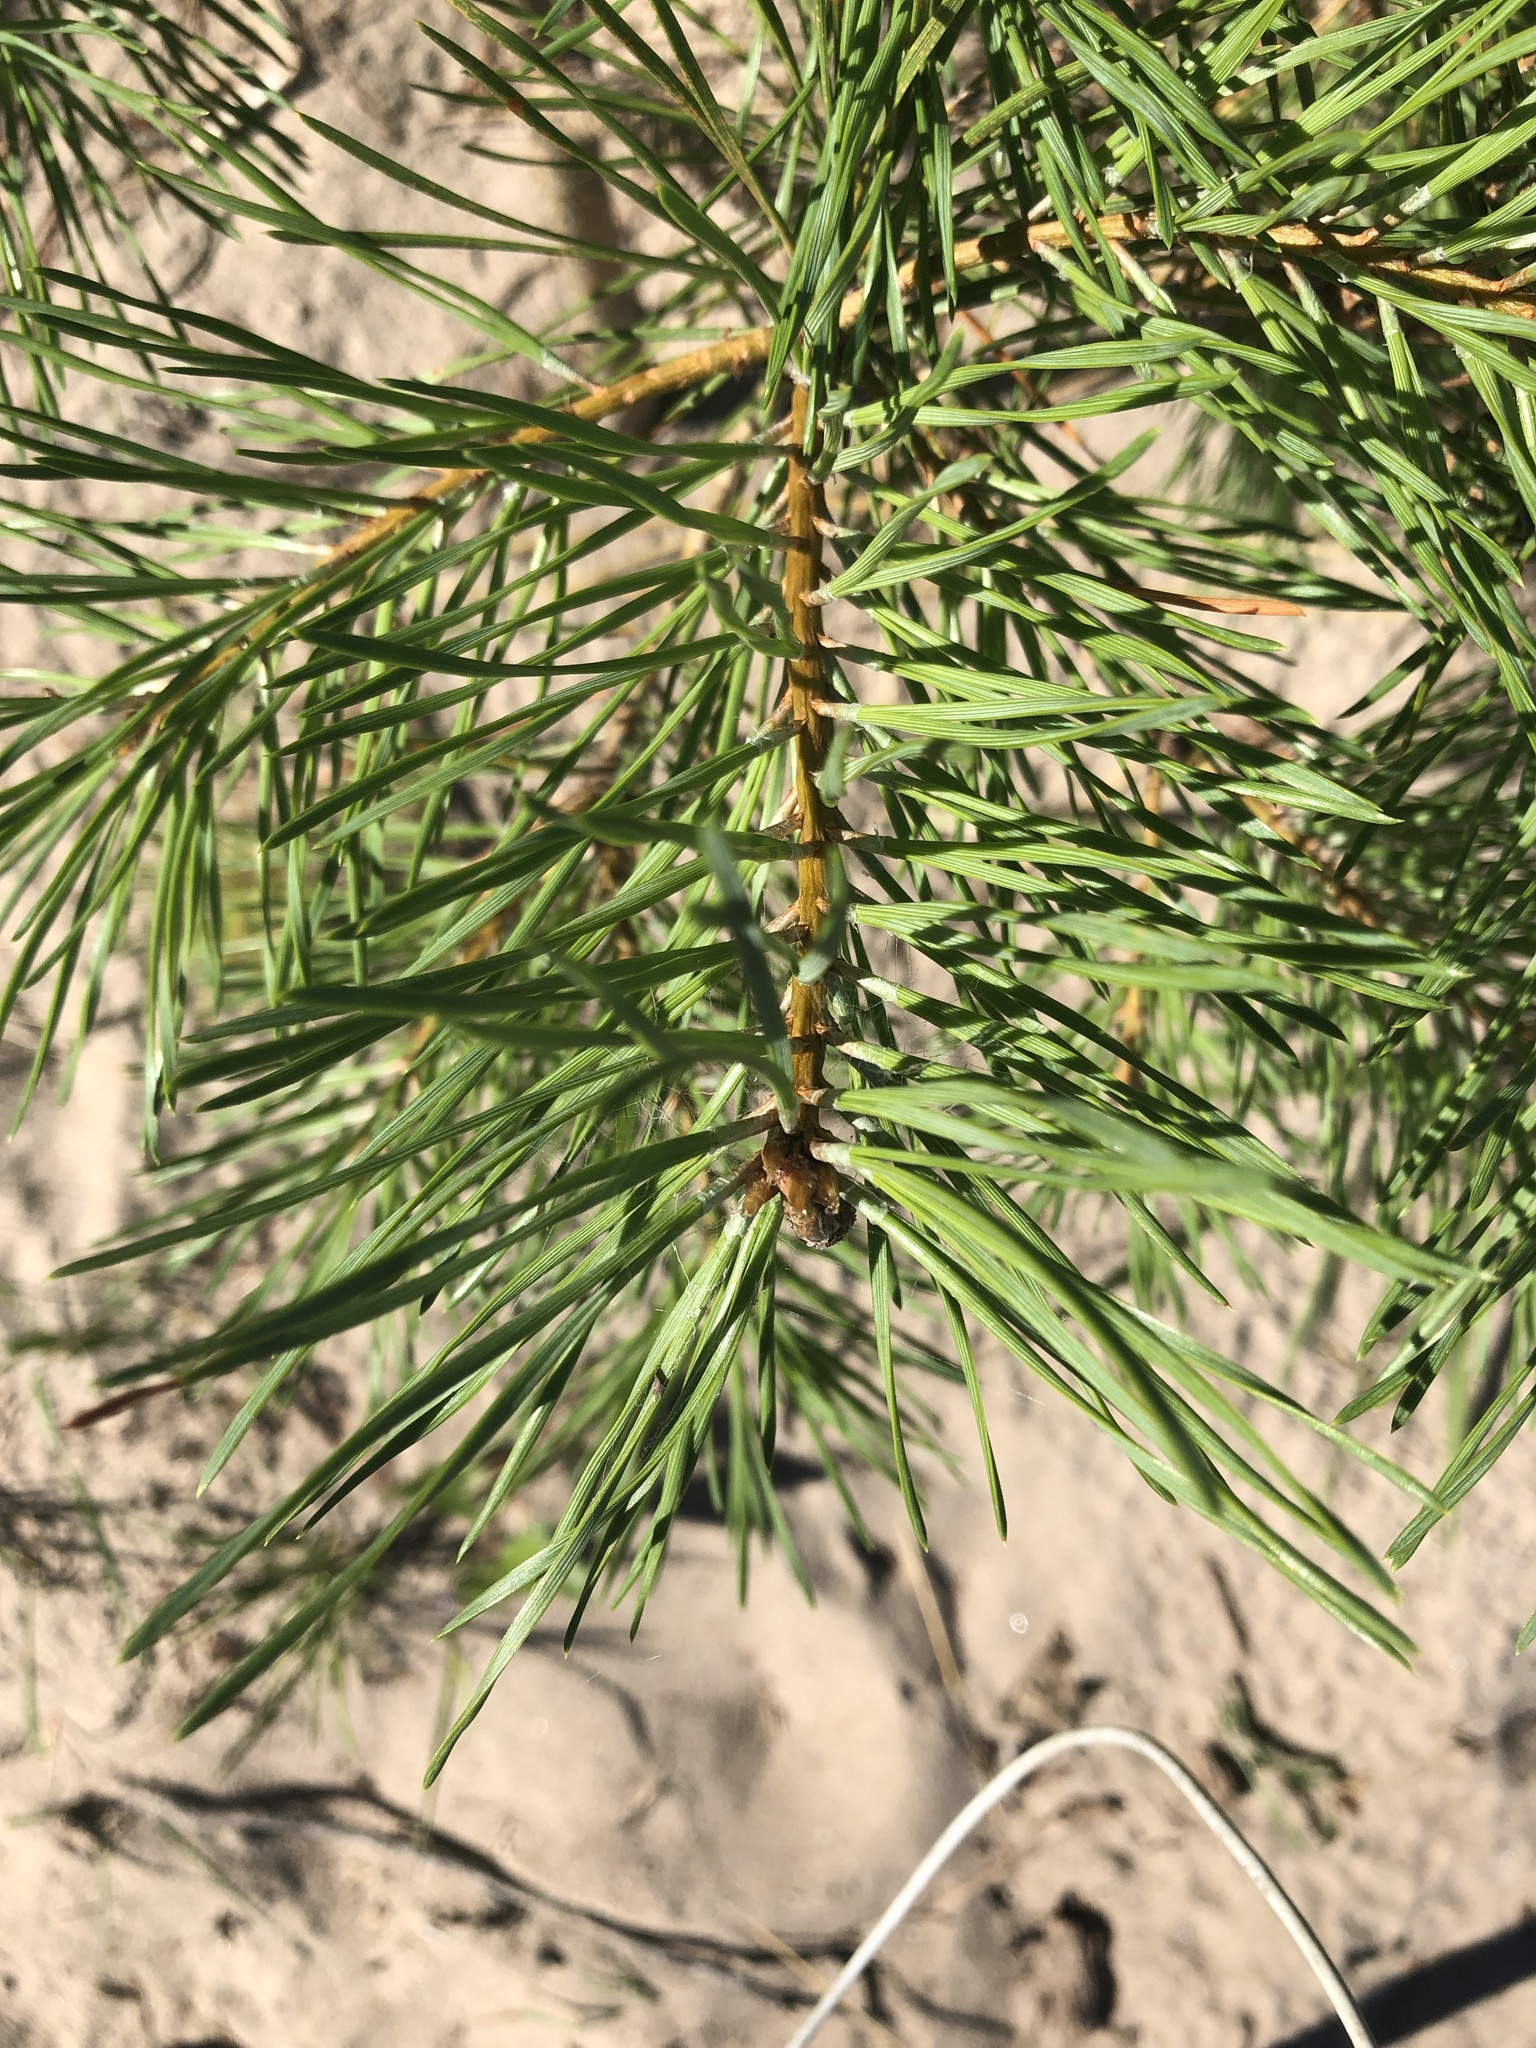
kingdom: Plantae
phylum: Tracheophyta
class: Pinopsida
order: Pinales
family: Pinaceae
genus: Pinus
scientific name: Pinus sylvestris
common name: Scots pine
